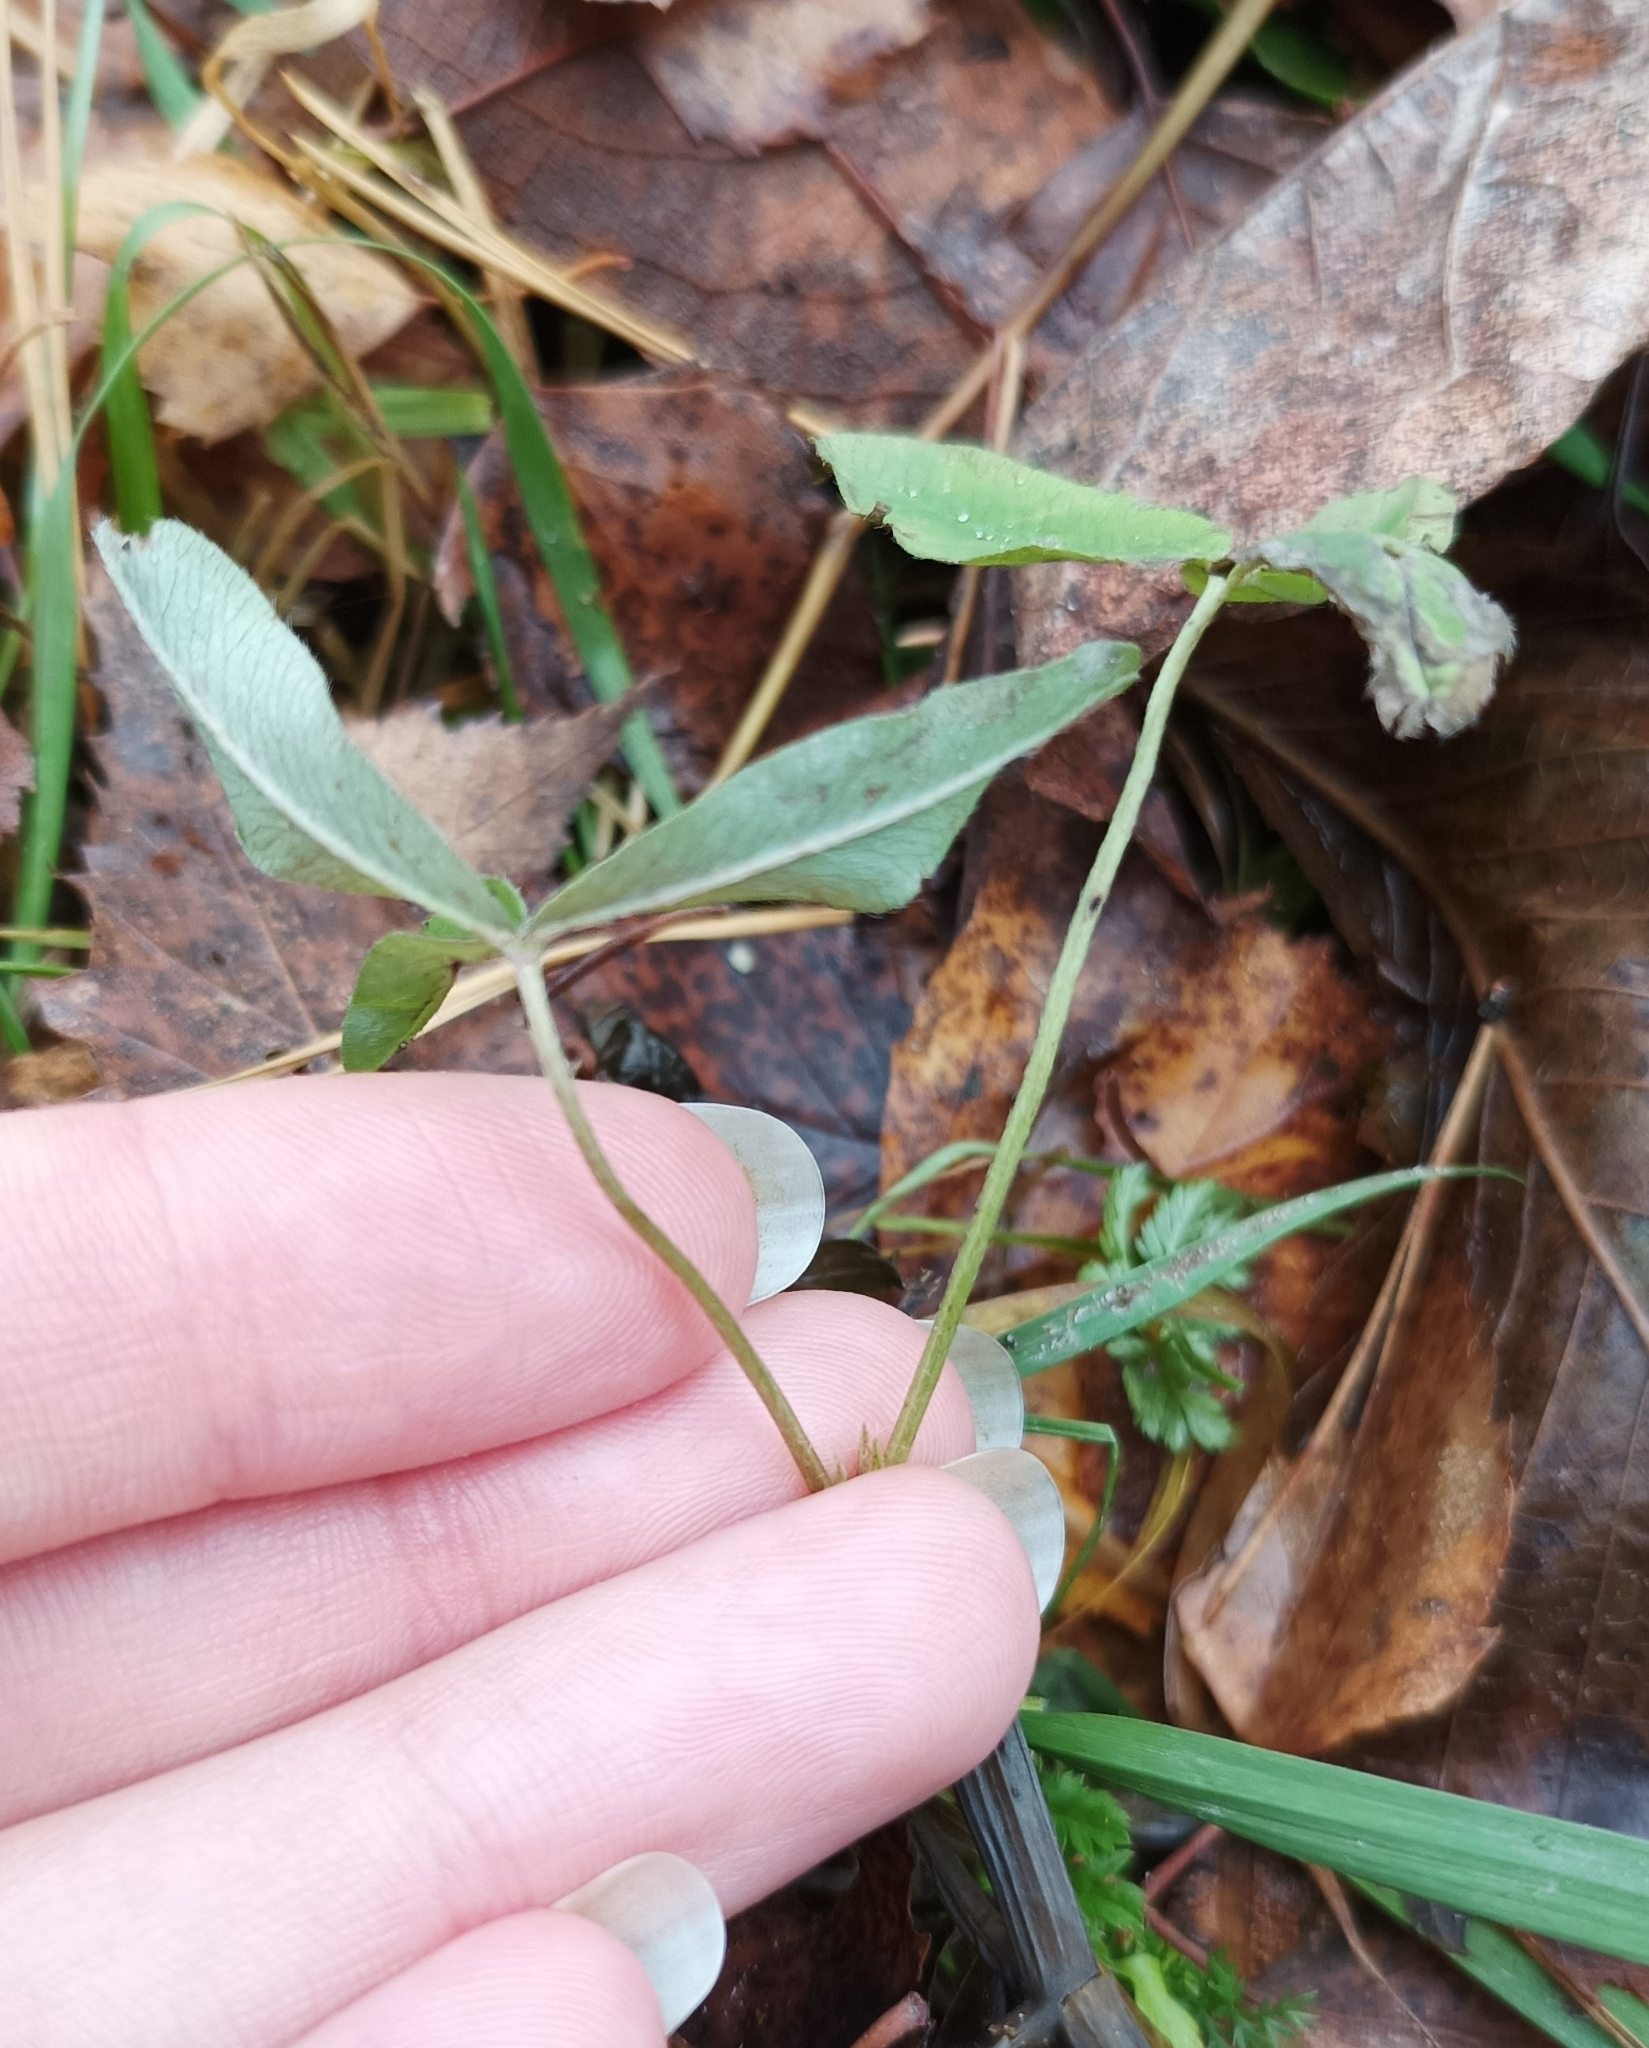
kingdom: Plantae
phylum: Tracheophyta
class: Magnoliopsida
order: Fabales
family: Fabaceae
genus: Trifolium
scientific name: Trifolium medium
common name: Zigzag clover
